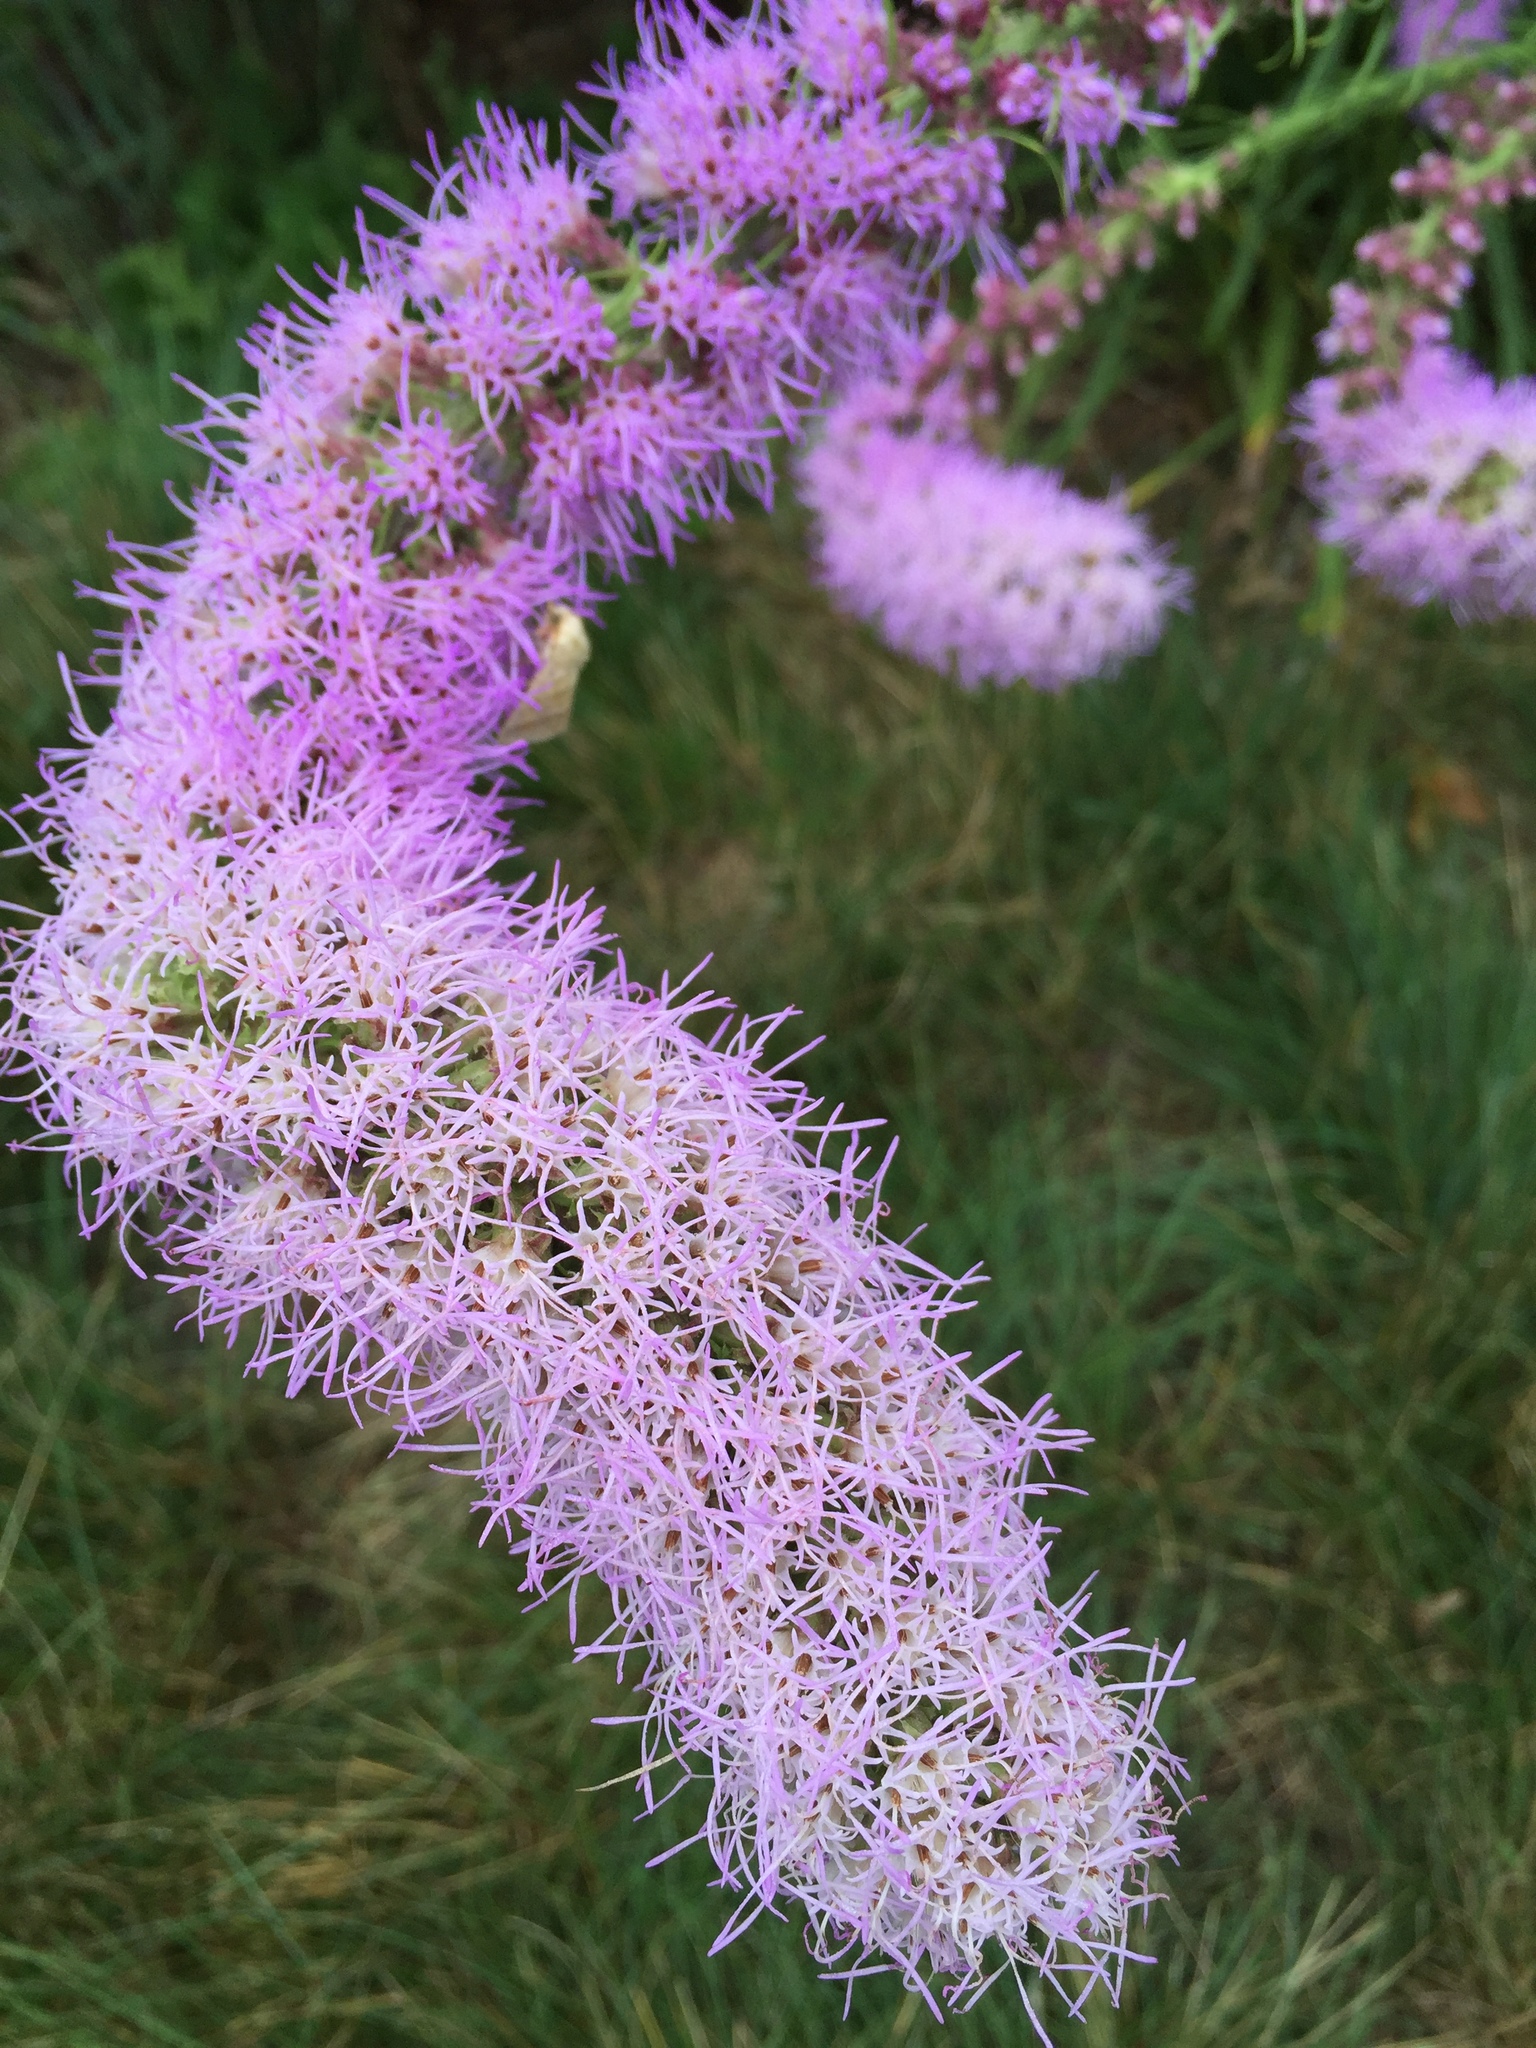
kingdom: Plantae
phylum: Tracheophyta
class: Magnoliopsida
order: Asterales
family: Asteraceae
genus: Liatris
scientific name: Liatris pycnostachya
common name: Cattail gayfeather
